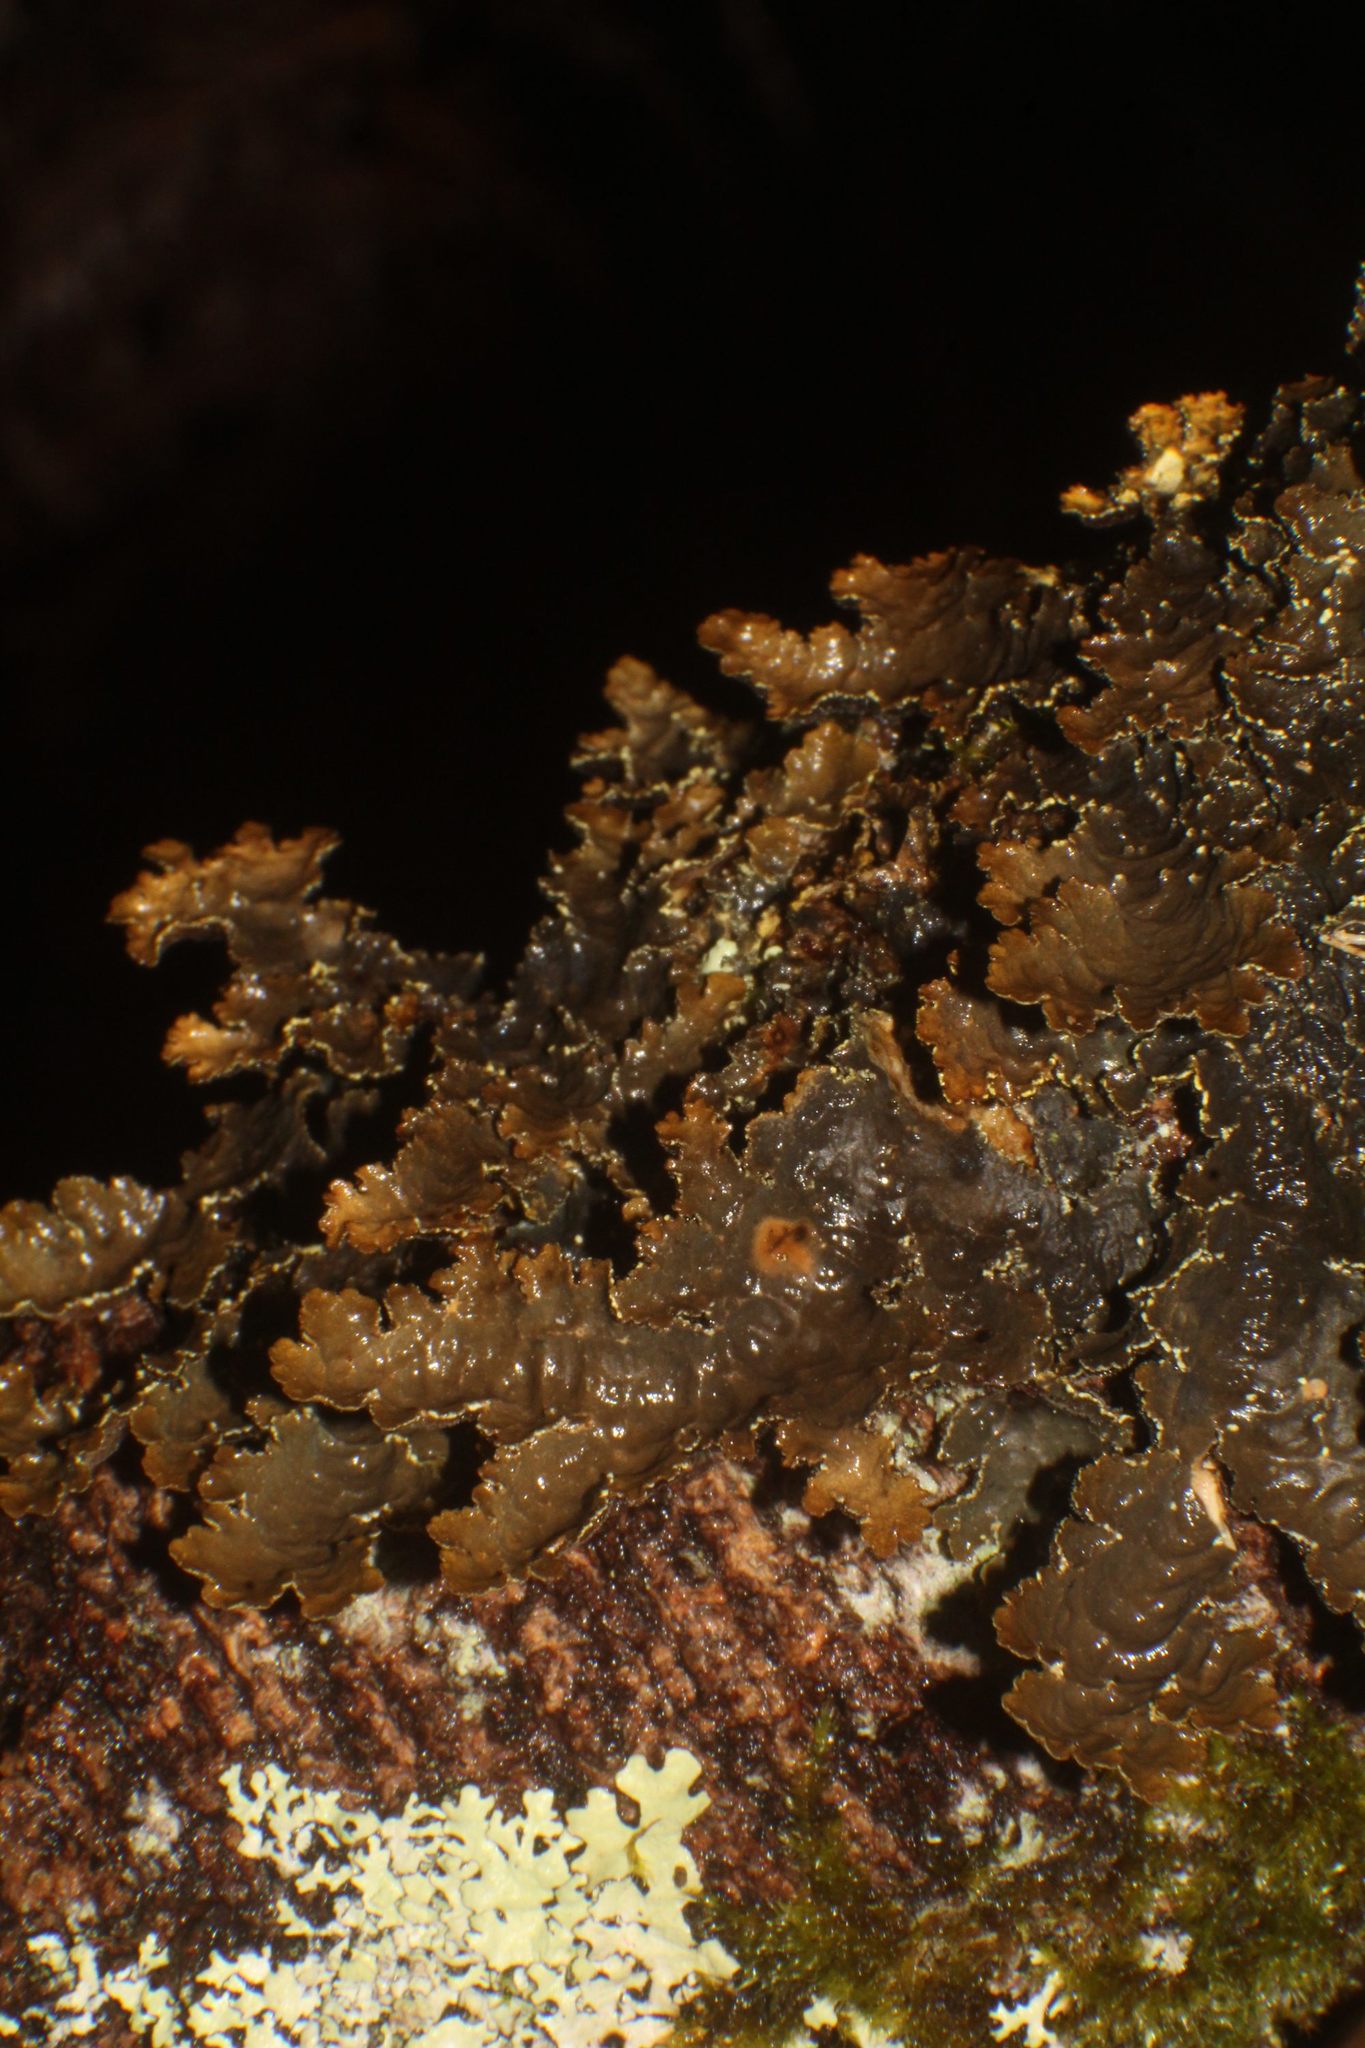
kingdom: Fungi
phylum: Ascomycota
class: Lecanoromycetes
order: Peltigerales
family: Lobariaceae
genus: Pseudocyphellaria
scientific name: Pseudocyphellaria neglecta
